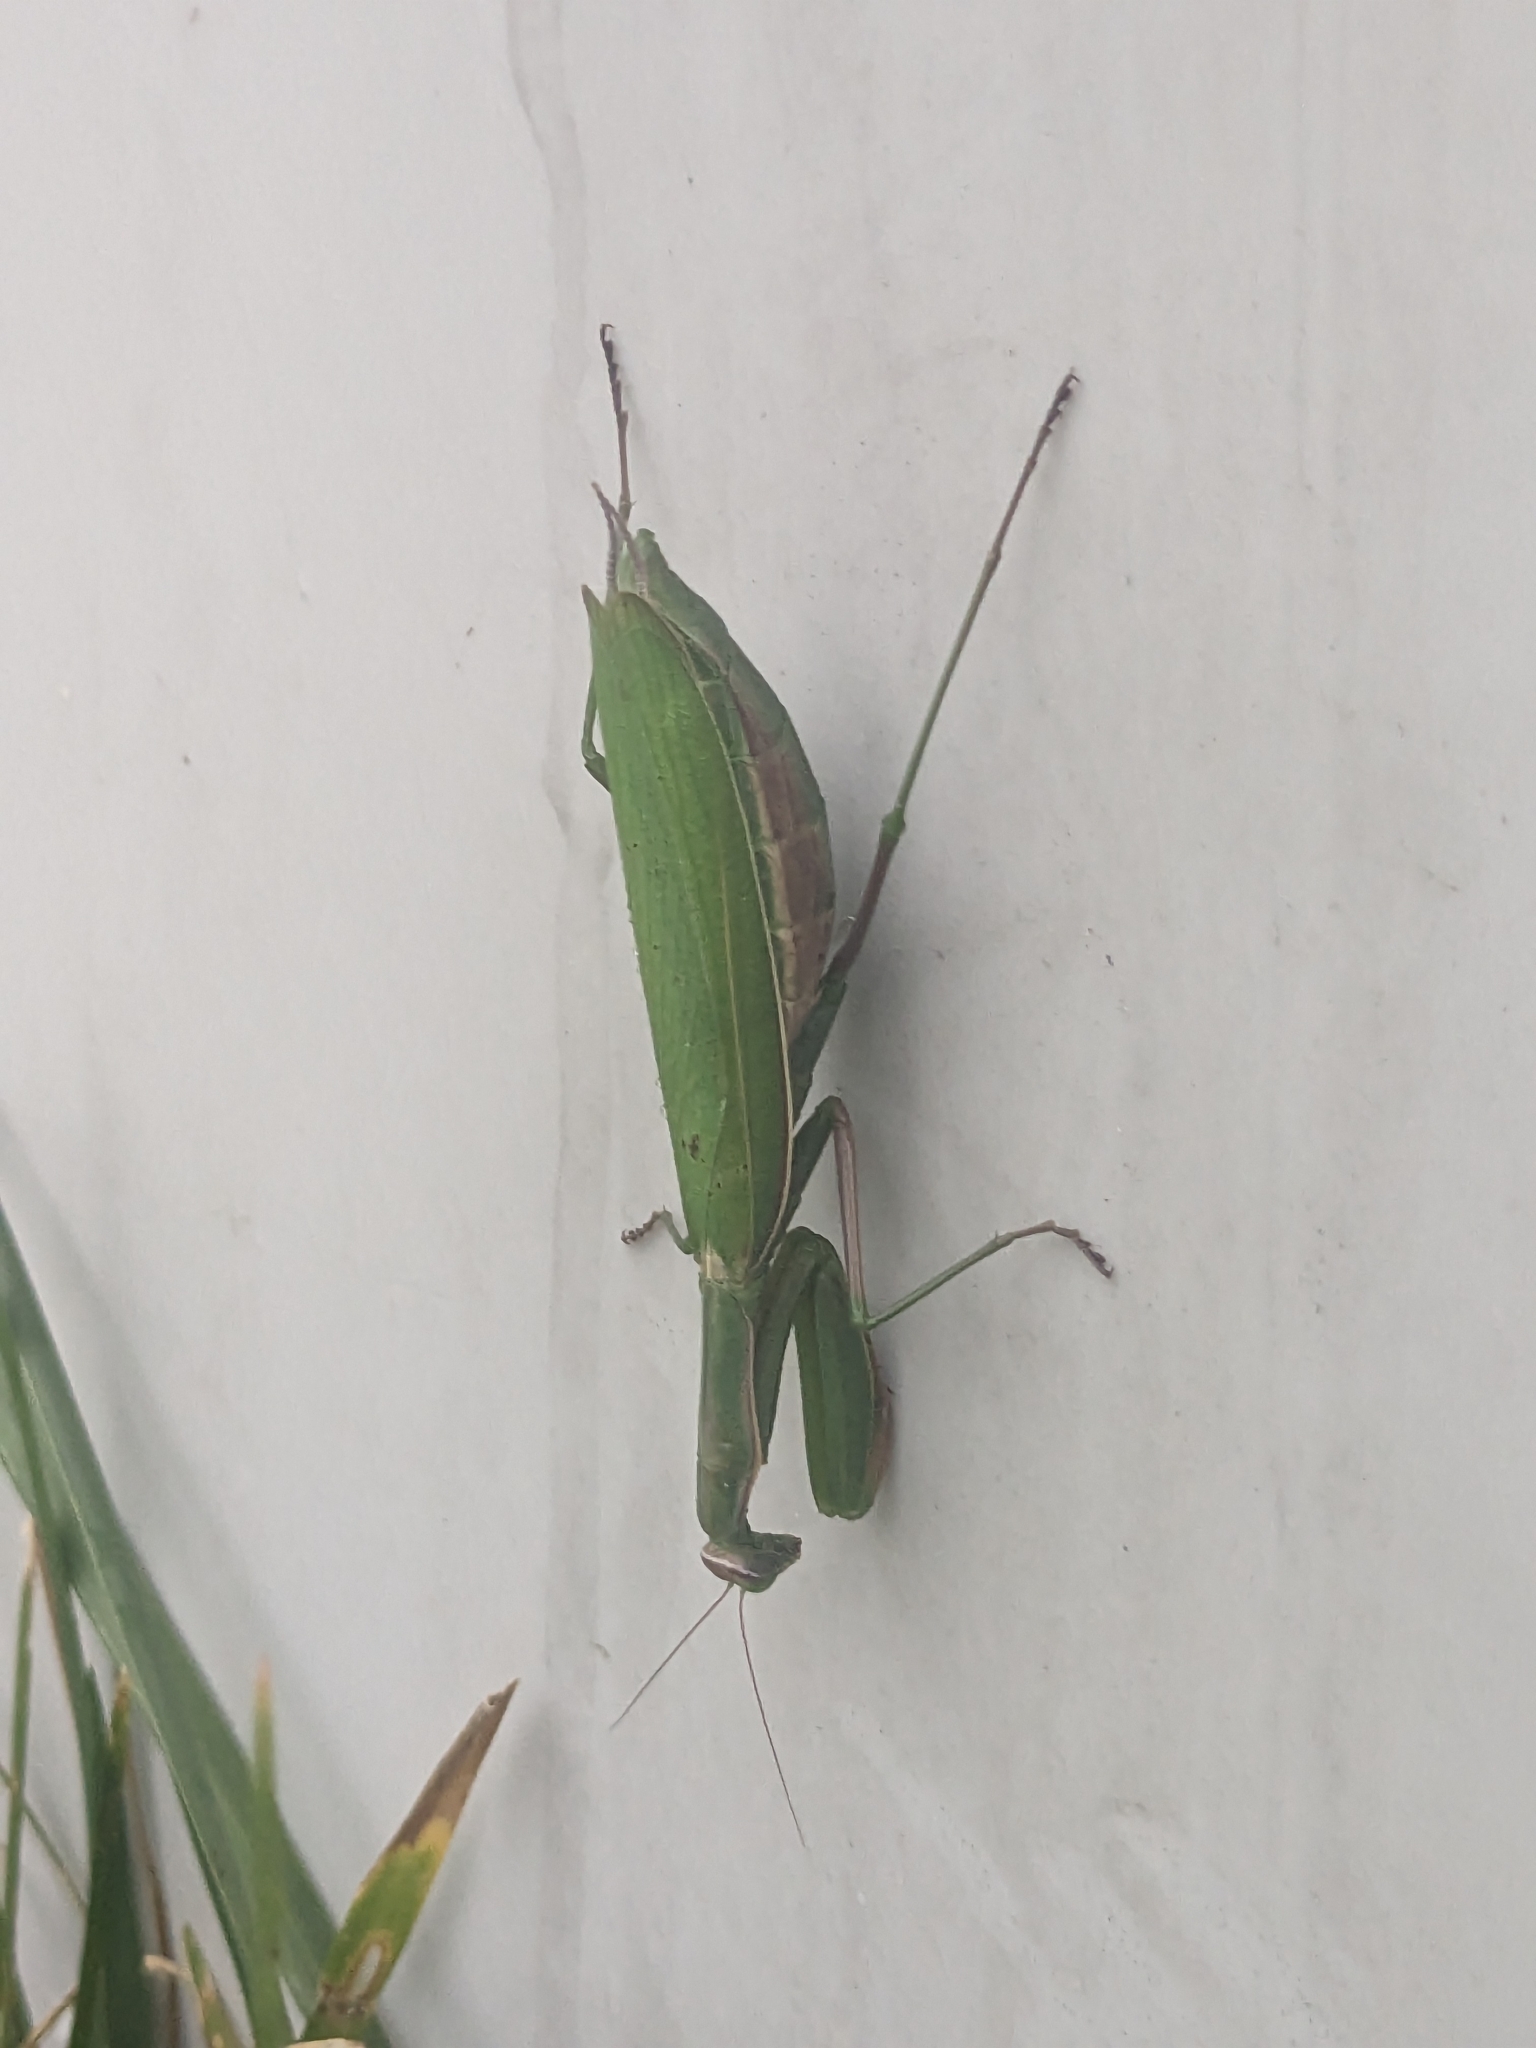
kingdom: Animalia
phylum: Arthropoda
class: Insecta
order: Mantodea
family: Mantidae
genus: Mantis
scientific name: Mantis religiosa
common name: Praying mantis
